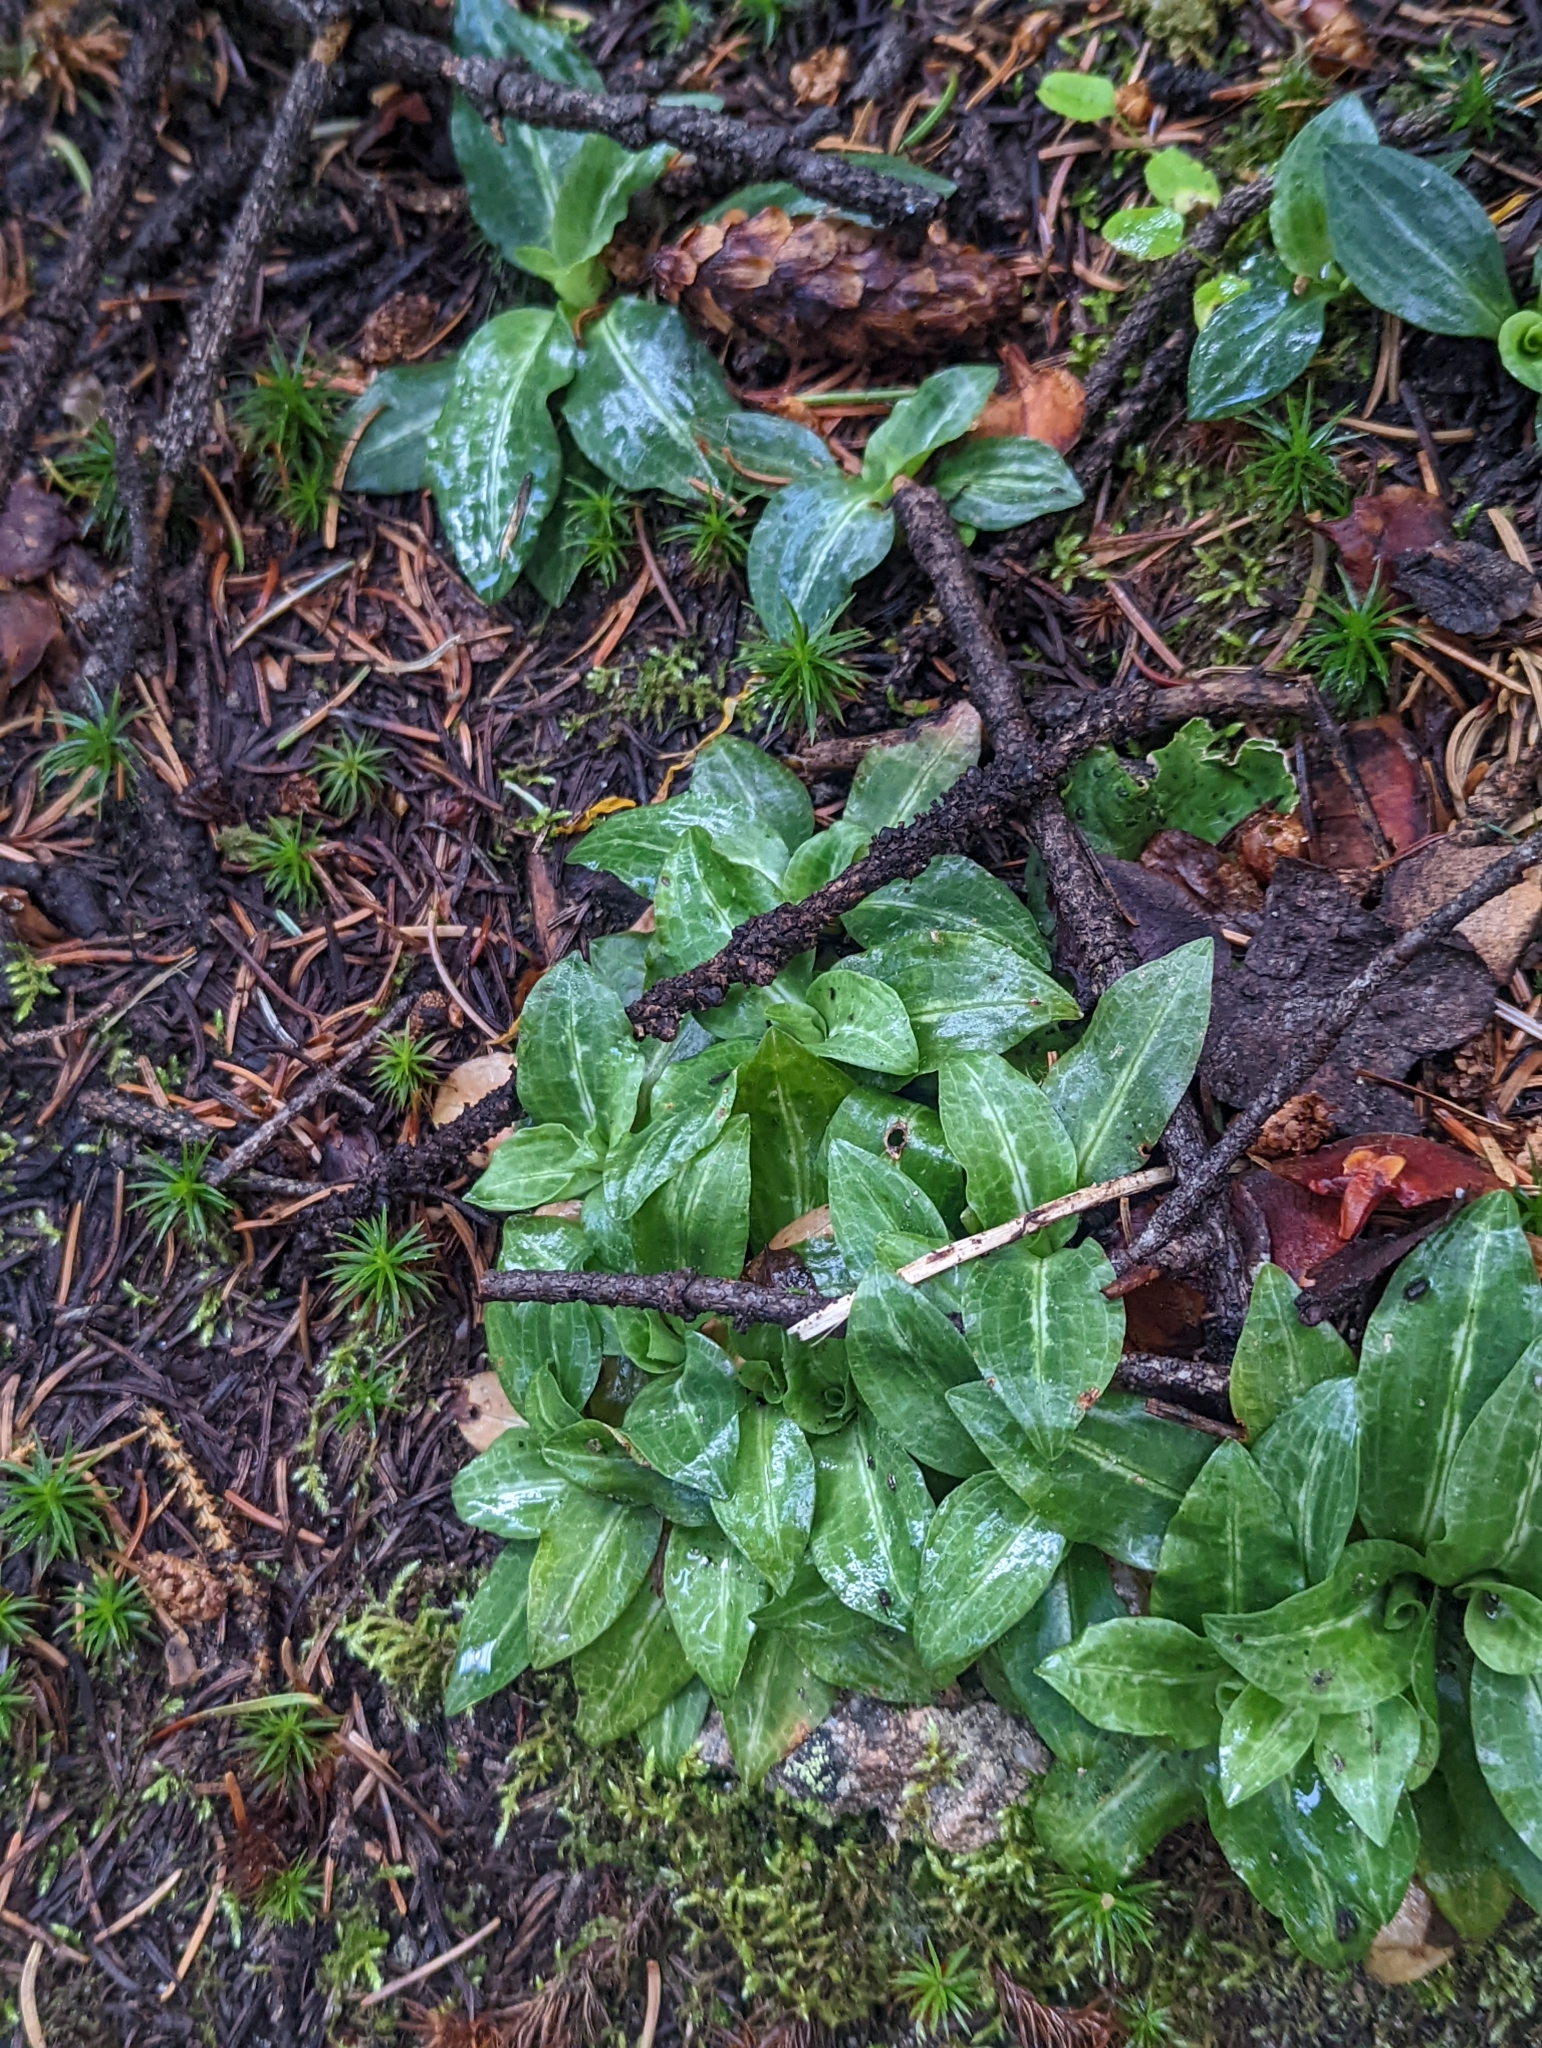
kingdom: Plantae
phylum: Tracheophyta
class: Liliopsida
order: Asparagales
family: Orchidaceae
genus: Goodyera
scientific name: Goodyera oblongifolia
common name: Giant rattlesnake-plantain
